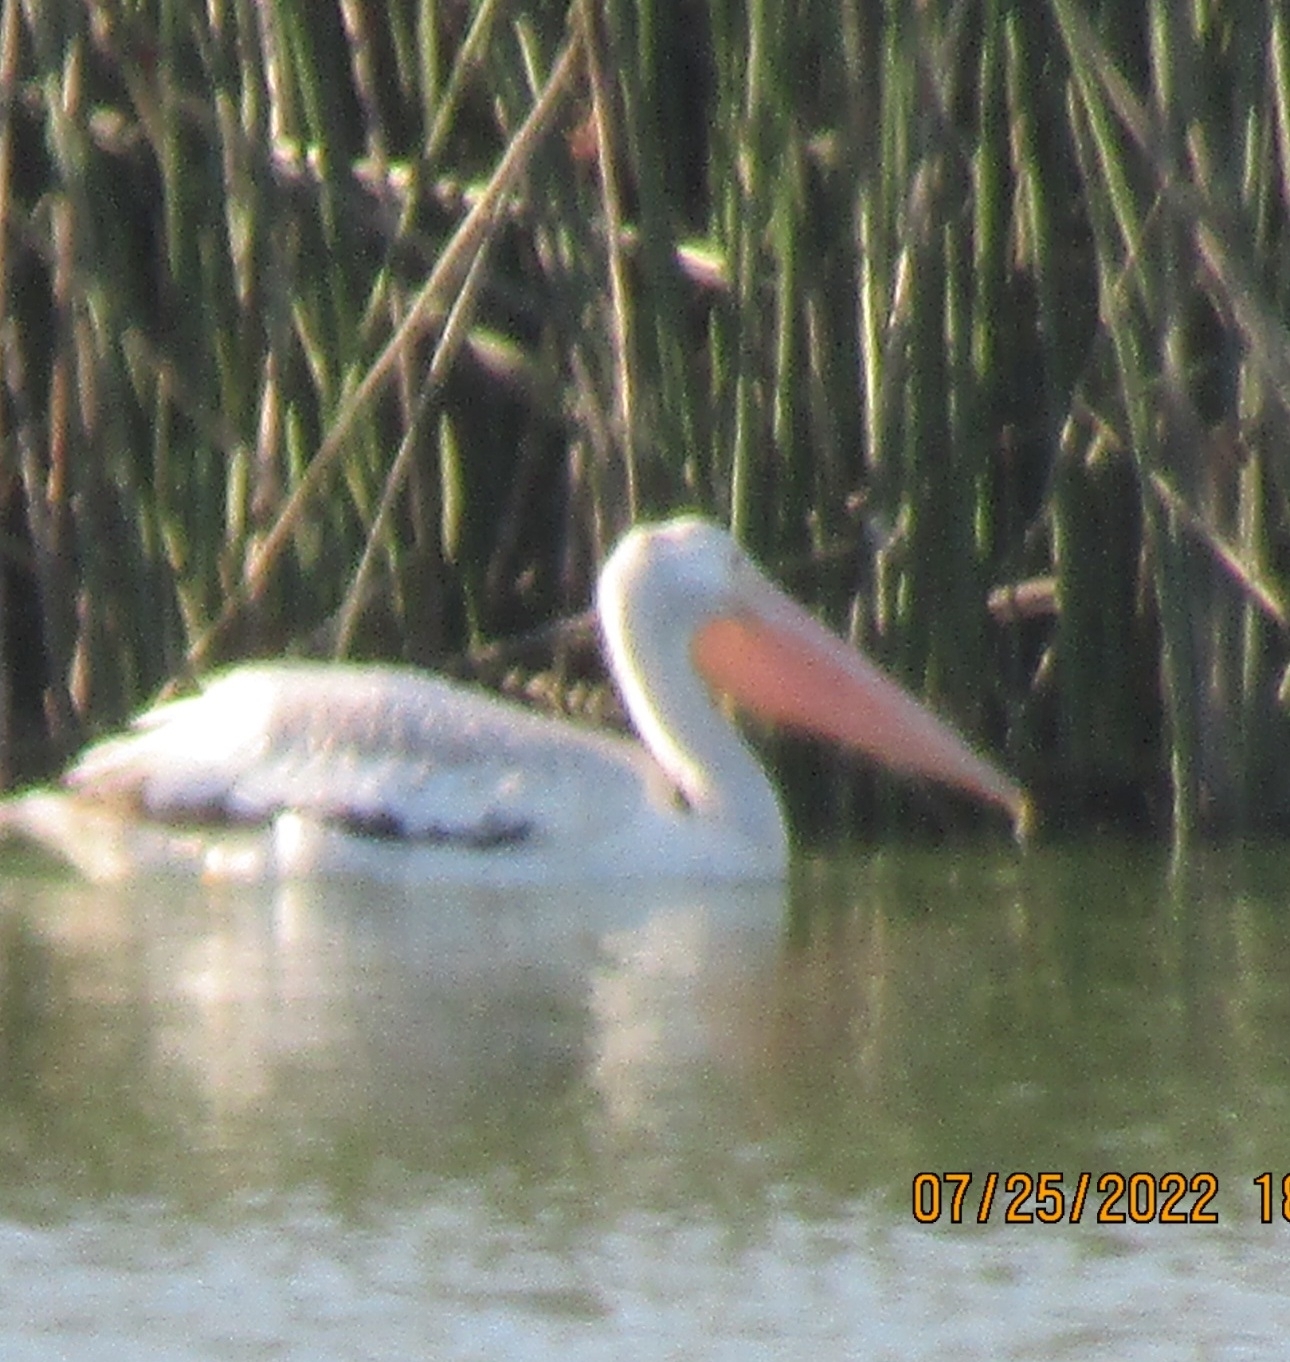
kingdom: Animalia
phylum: Chordata
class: Aves
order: Pelecaniformes
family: Pelecanidae
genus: Pelecanus
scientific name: Pelecanus erythrorhynchos
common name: American white pelican
